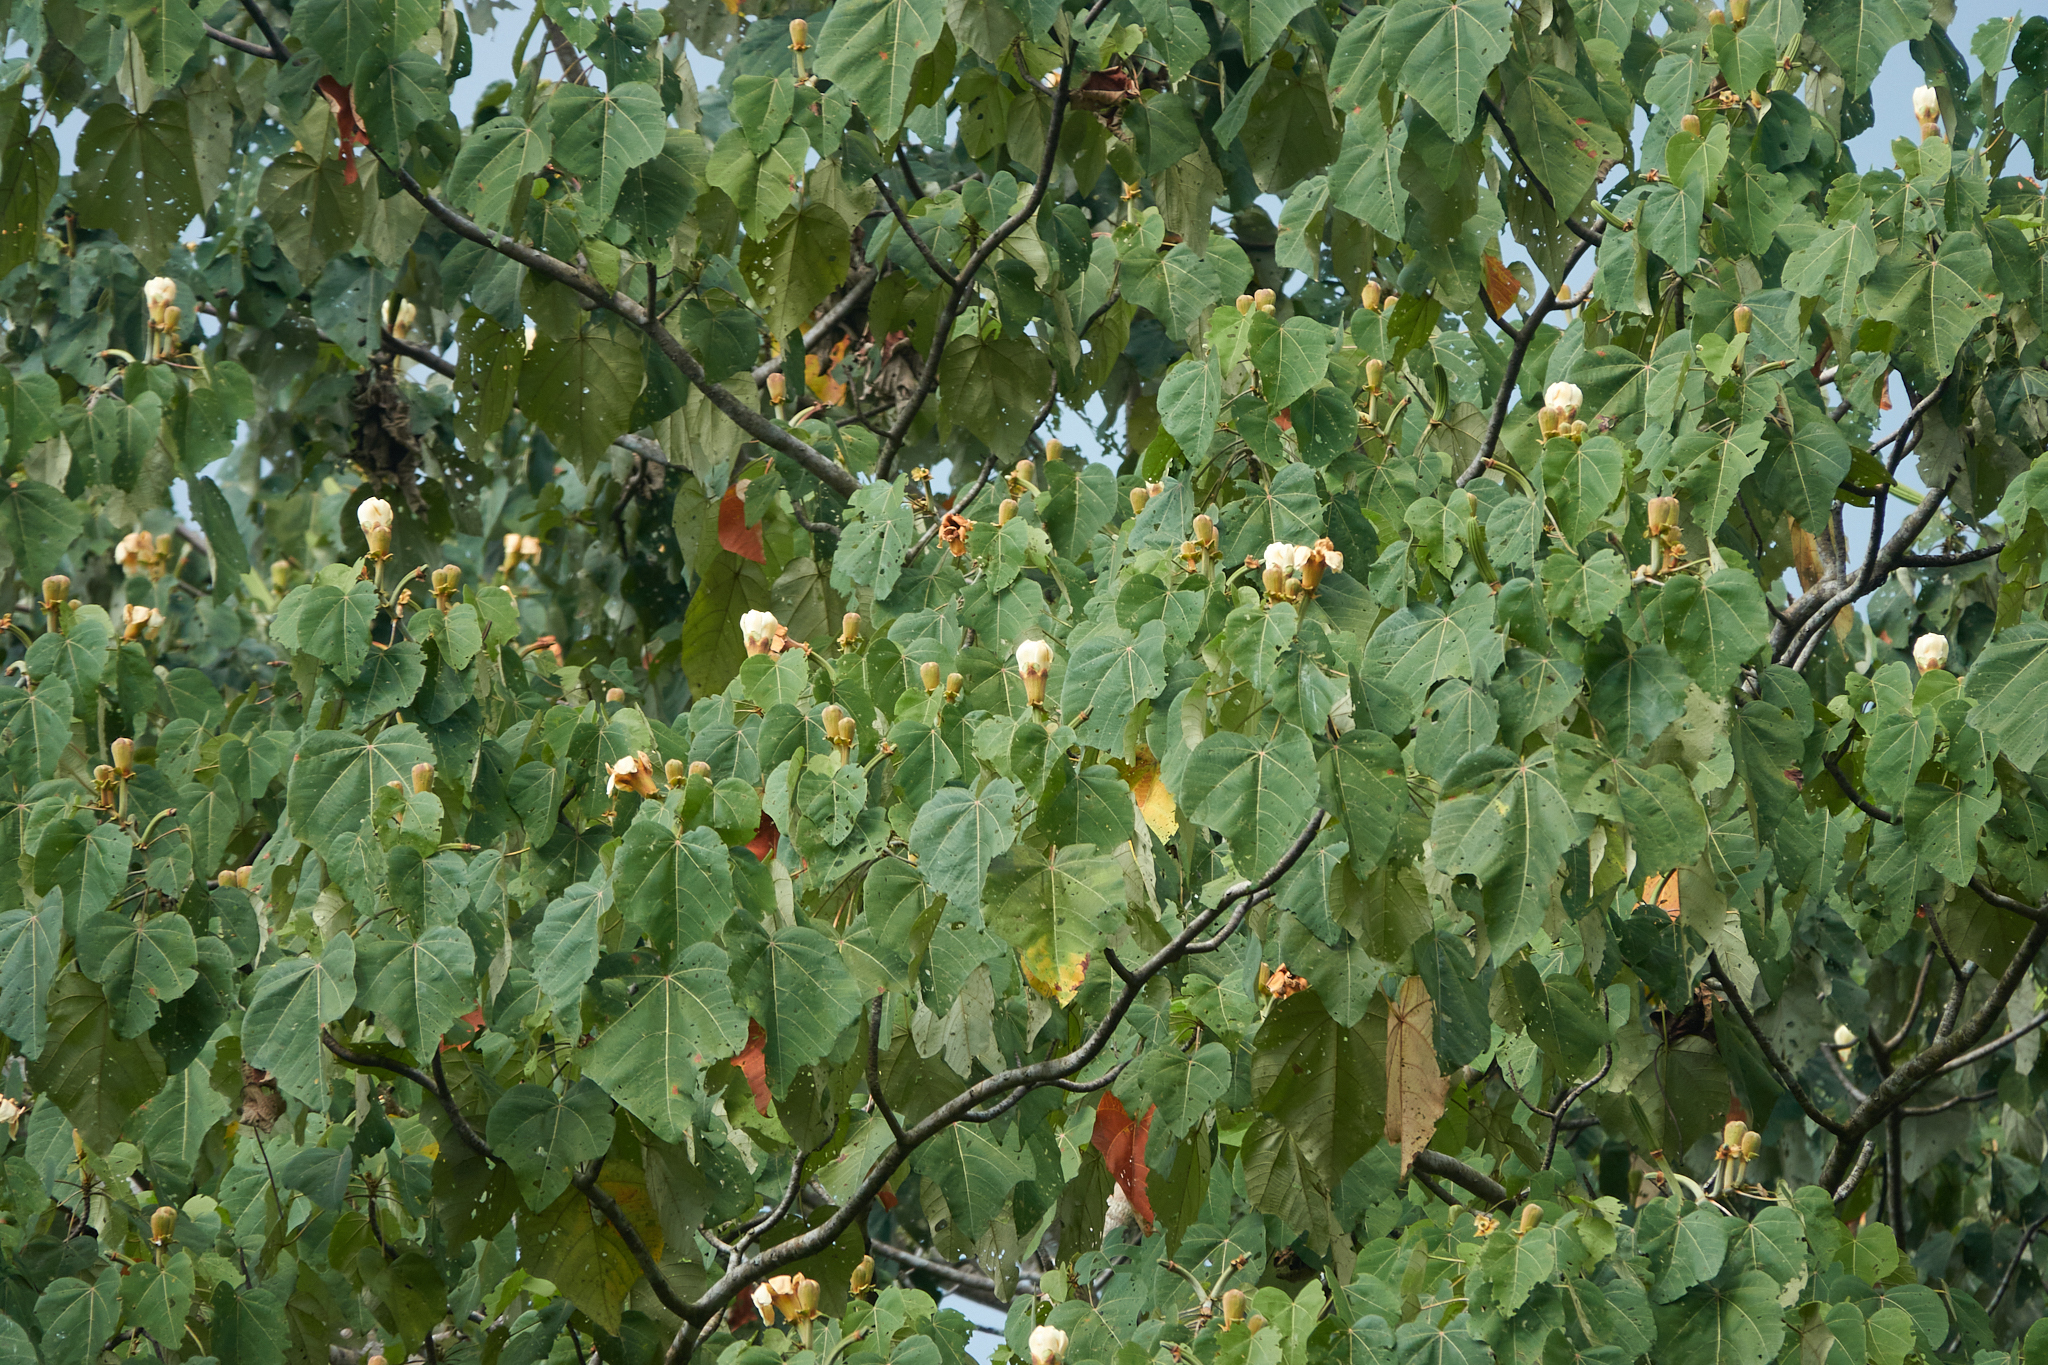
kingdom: Plantae
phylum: Tracheophyta
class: Magnoliopsida
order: Malvales
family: Malvaceae
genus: Ochroma
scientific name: Ochroma pyramidale
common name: Balsa
